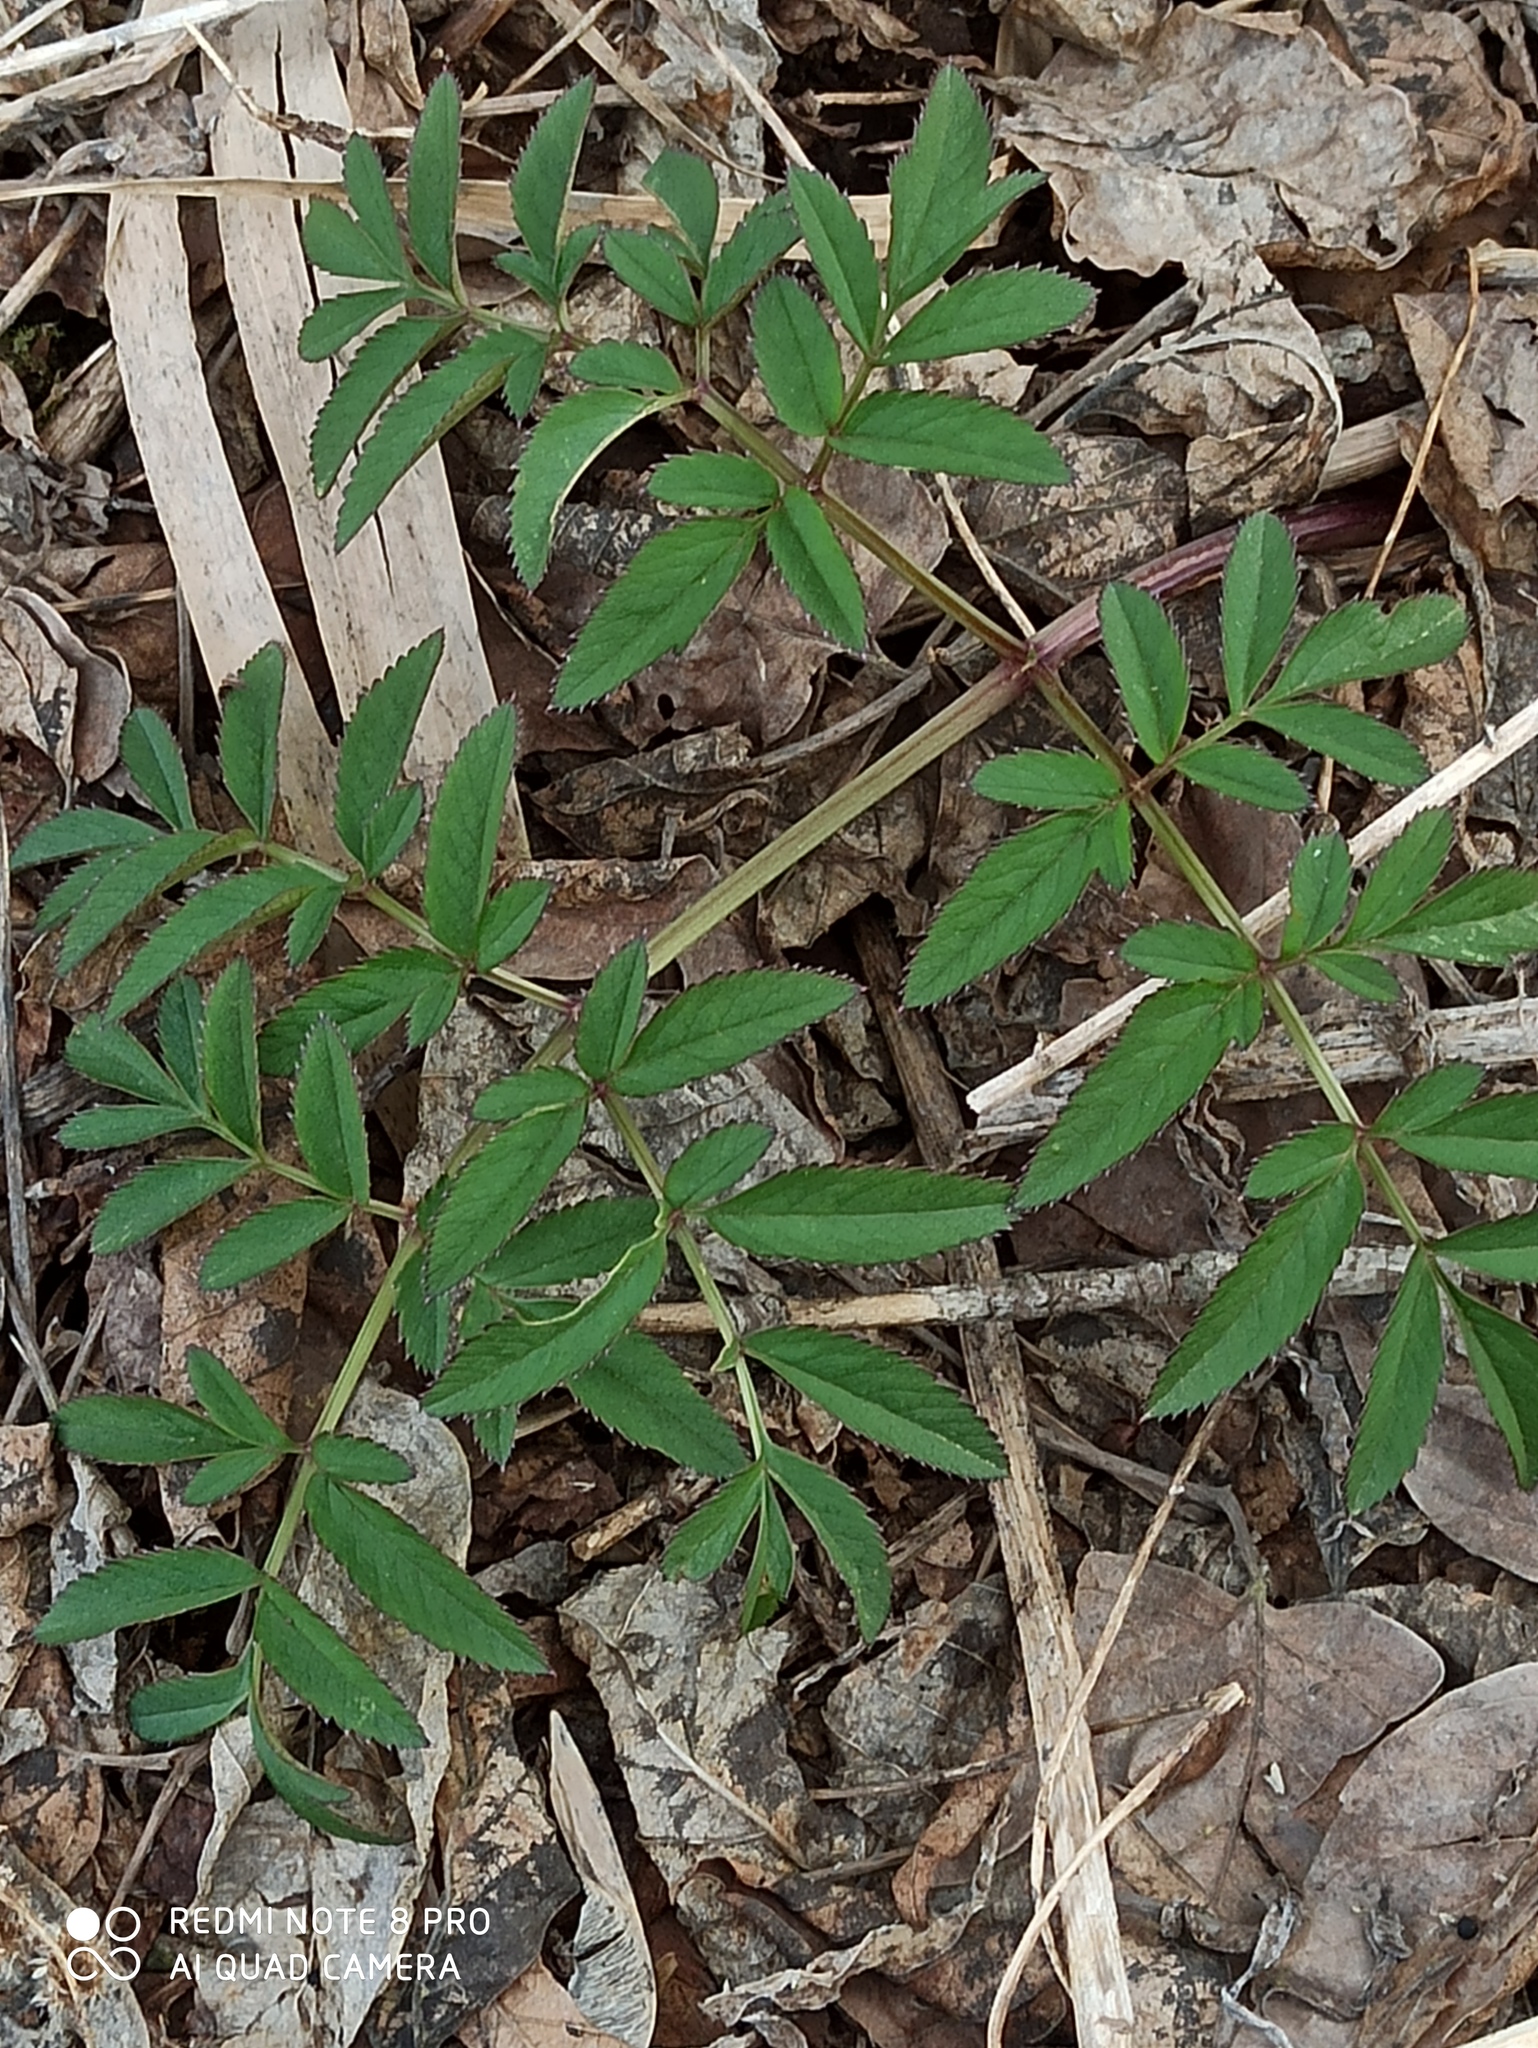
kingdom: Plantae
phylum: Tracheophyta
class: Magnoliopsida
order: Apiales
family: Apiaceae
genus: Angelica
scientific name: Angelica sylvestris
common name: Wild angelica
